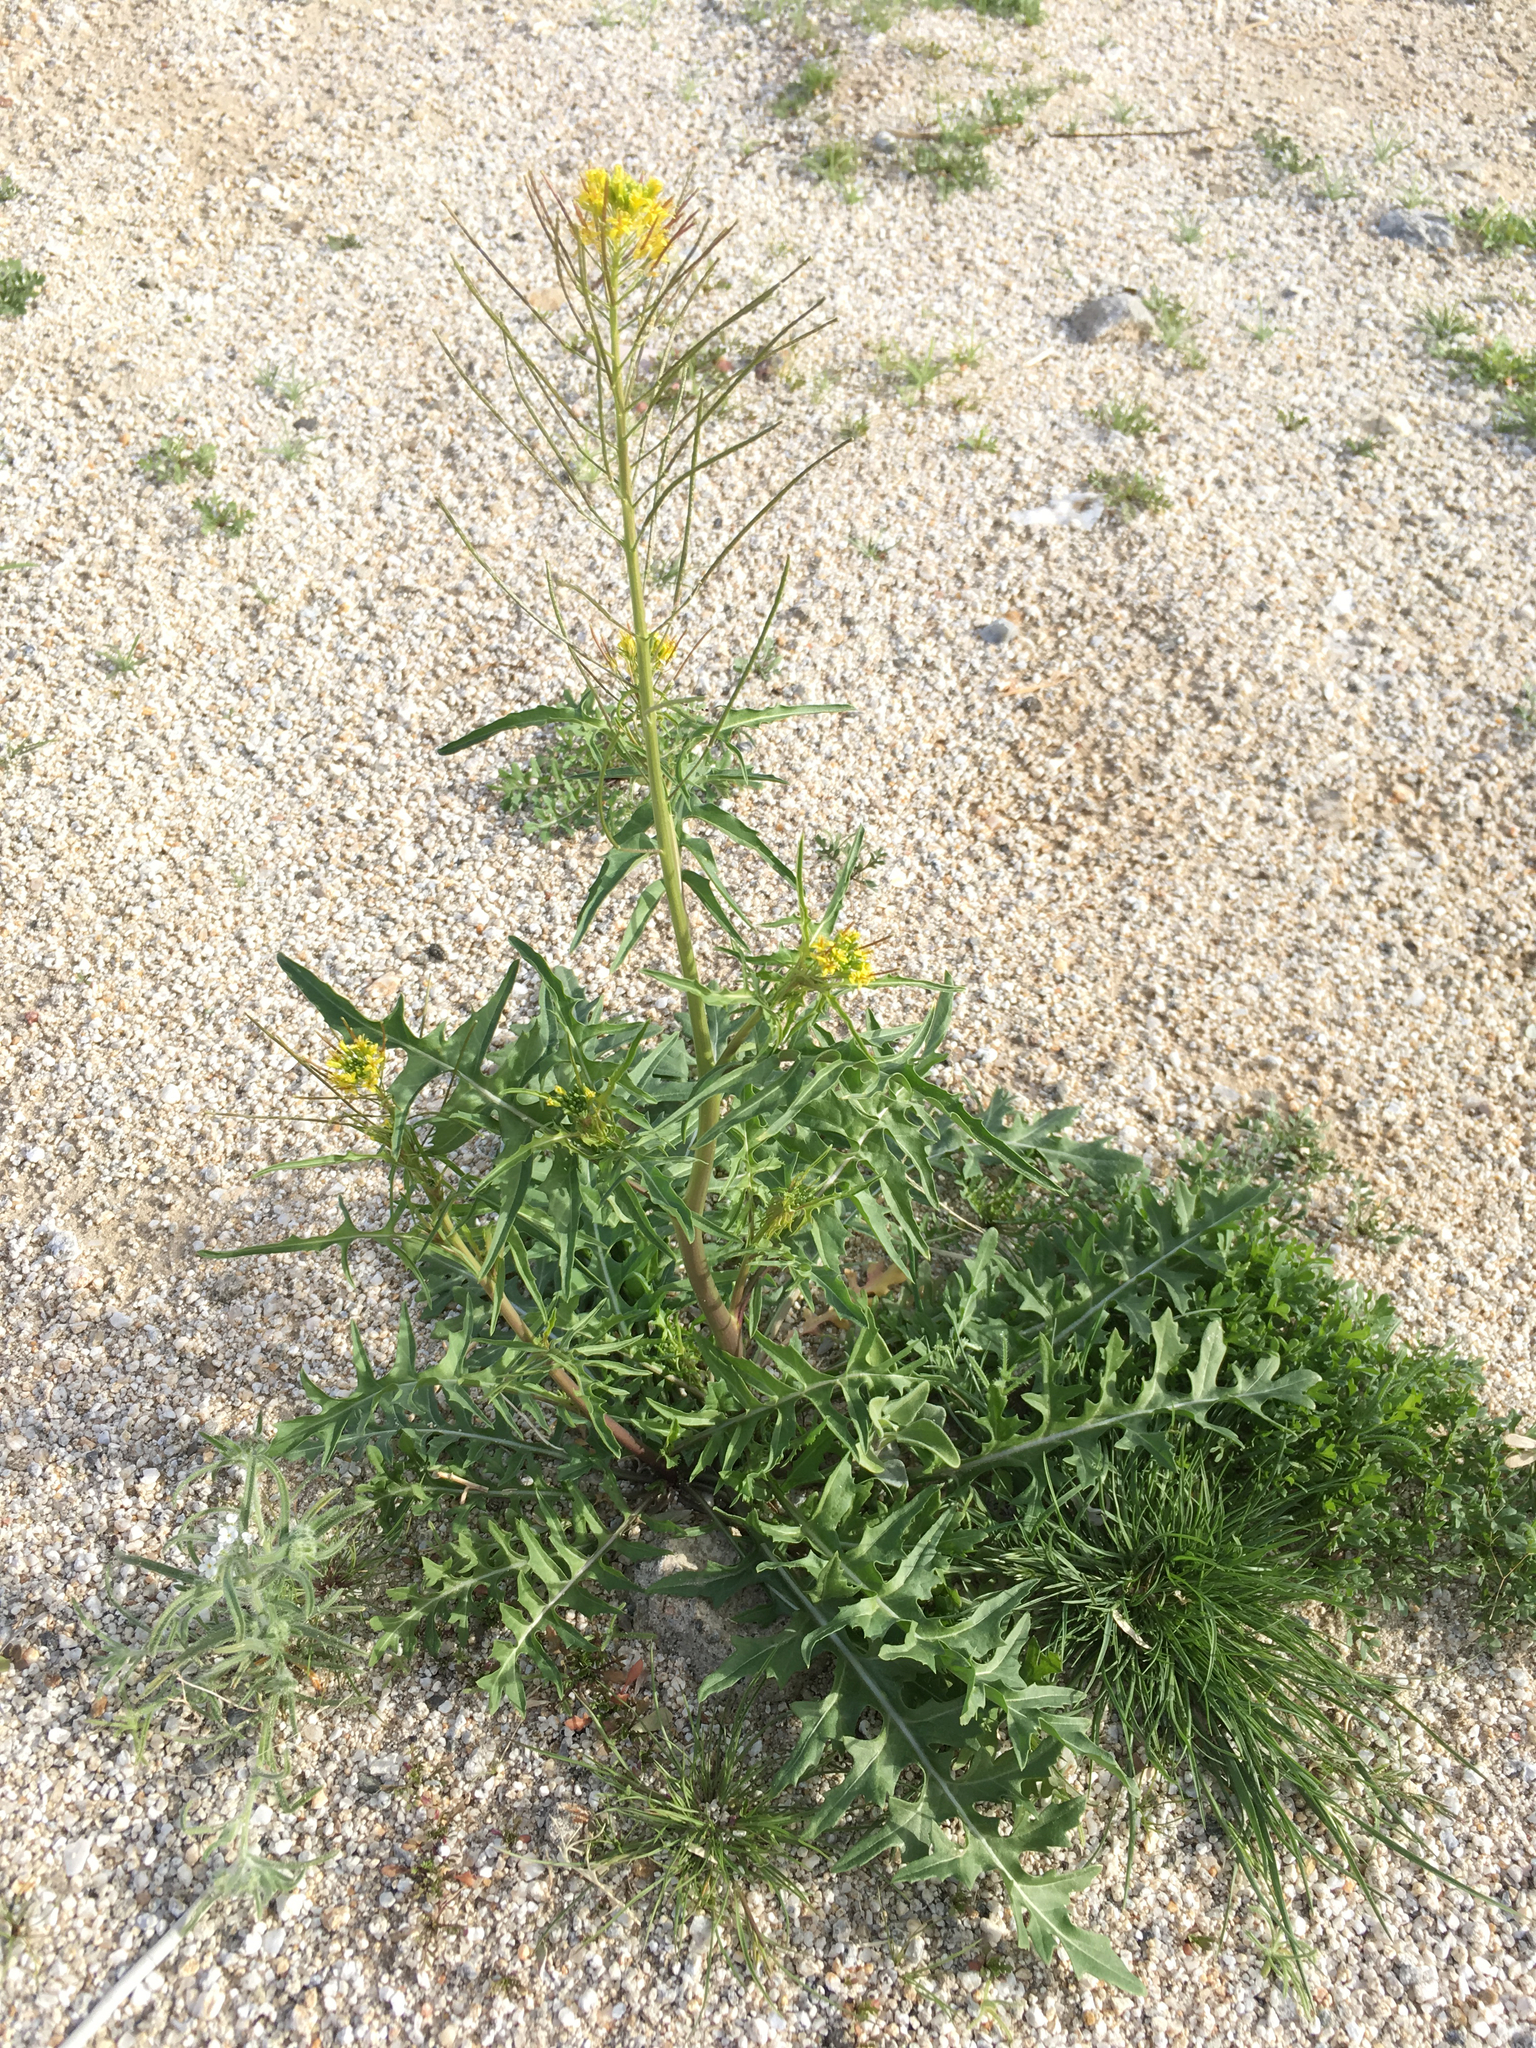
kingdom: Plantae
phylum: Tracheophyta
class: Magnoliopsida
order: Brassicales
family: Brassicaceae
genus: Sisymbrium
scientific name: Sisymbrium irio
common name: London rocket
